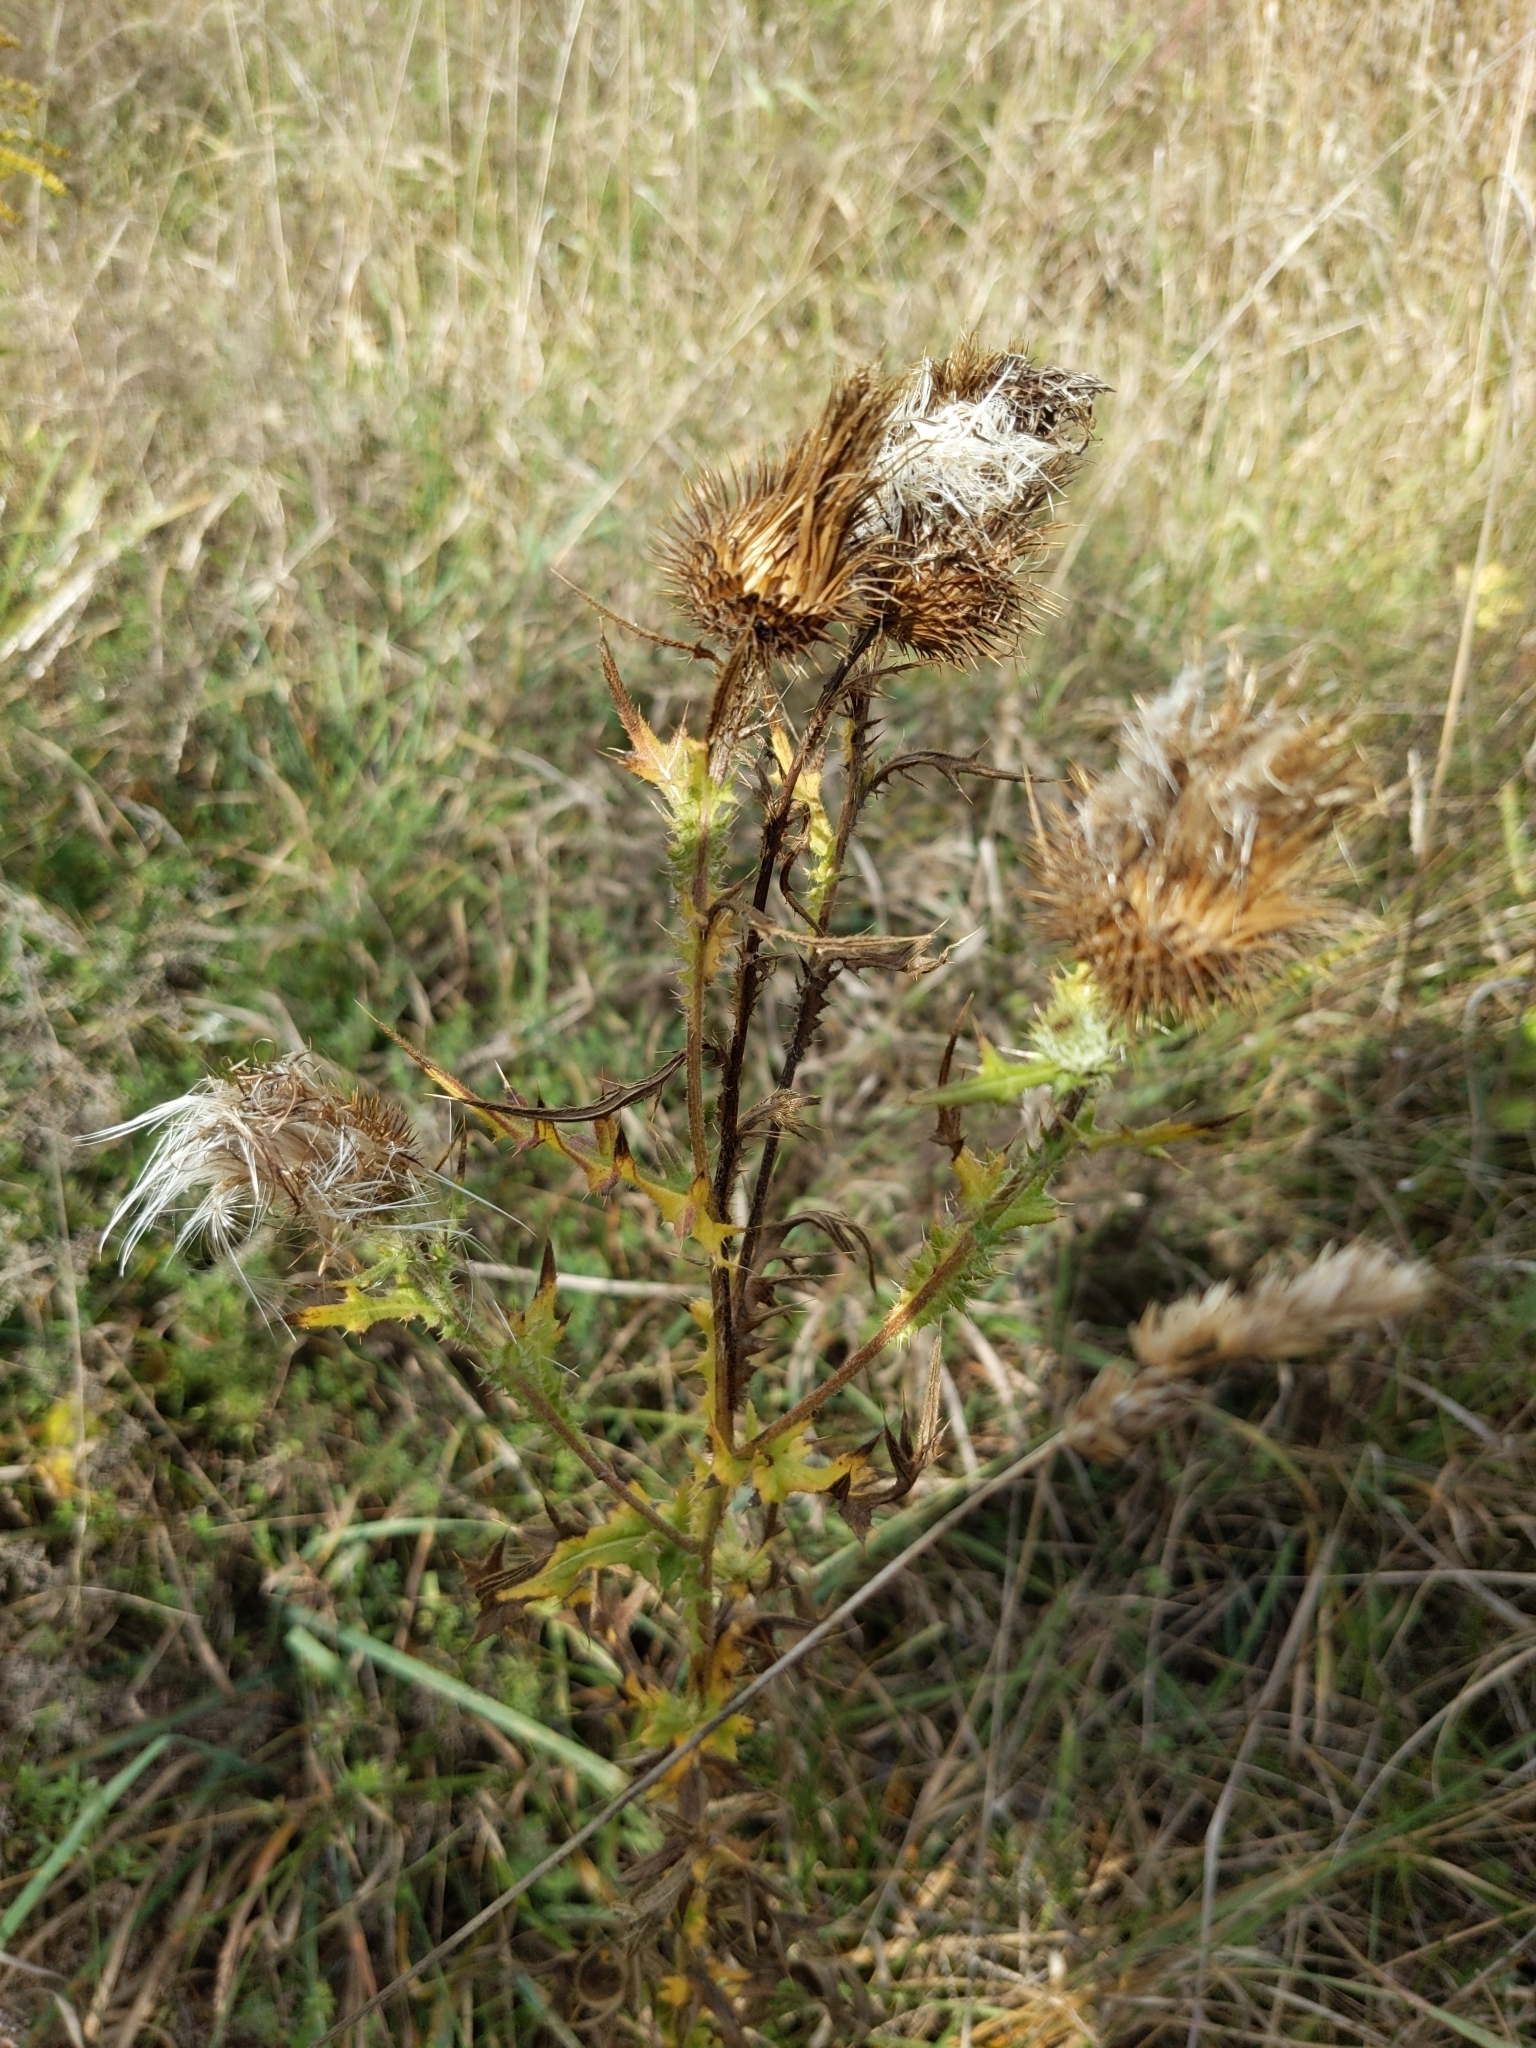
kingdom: Plantae
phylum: Tracheophyta
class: Magnoliopsida
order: Asterales
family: Asteraceae
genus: Cirsium
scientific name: Cirsium vulgare
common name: Bull thistle
